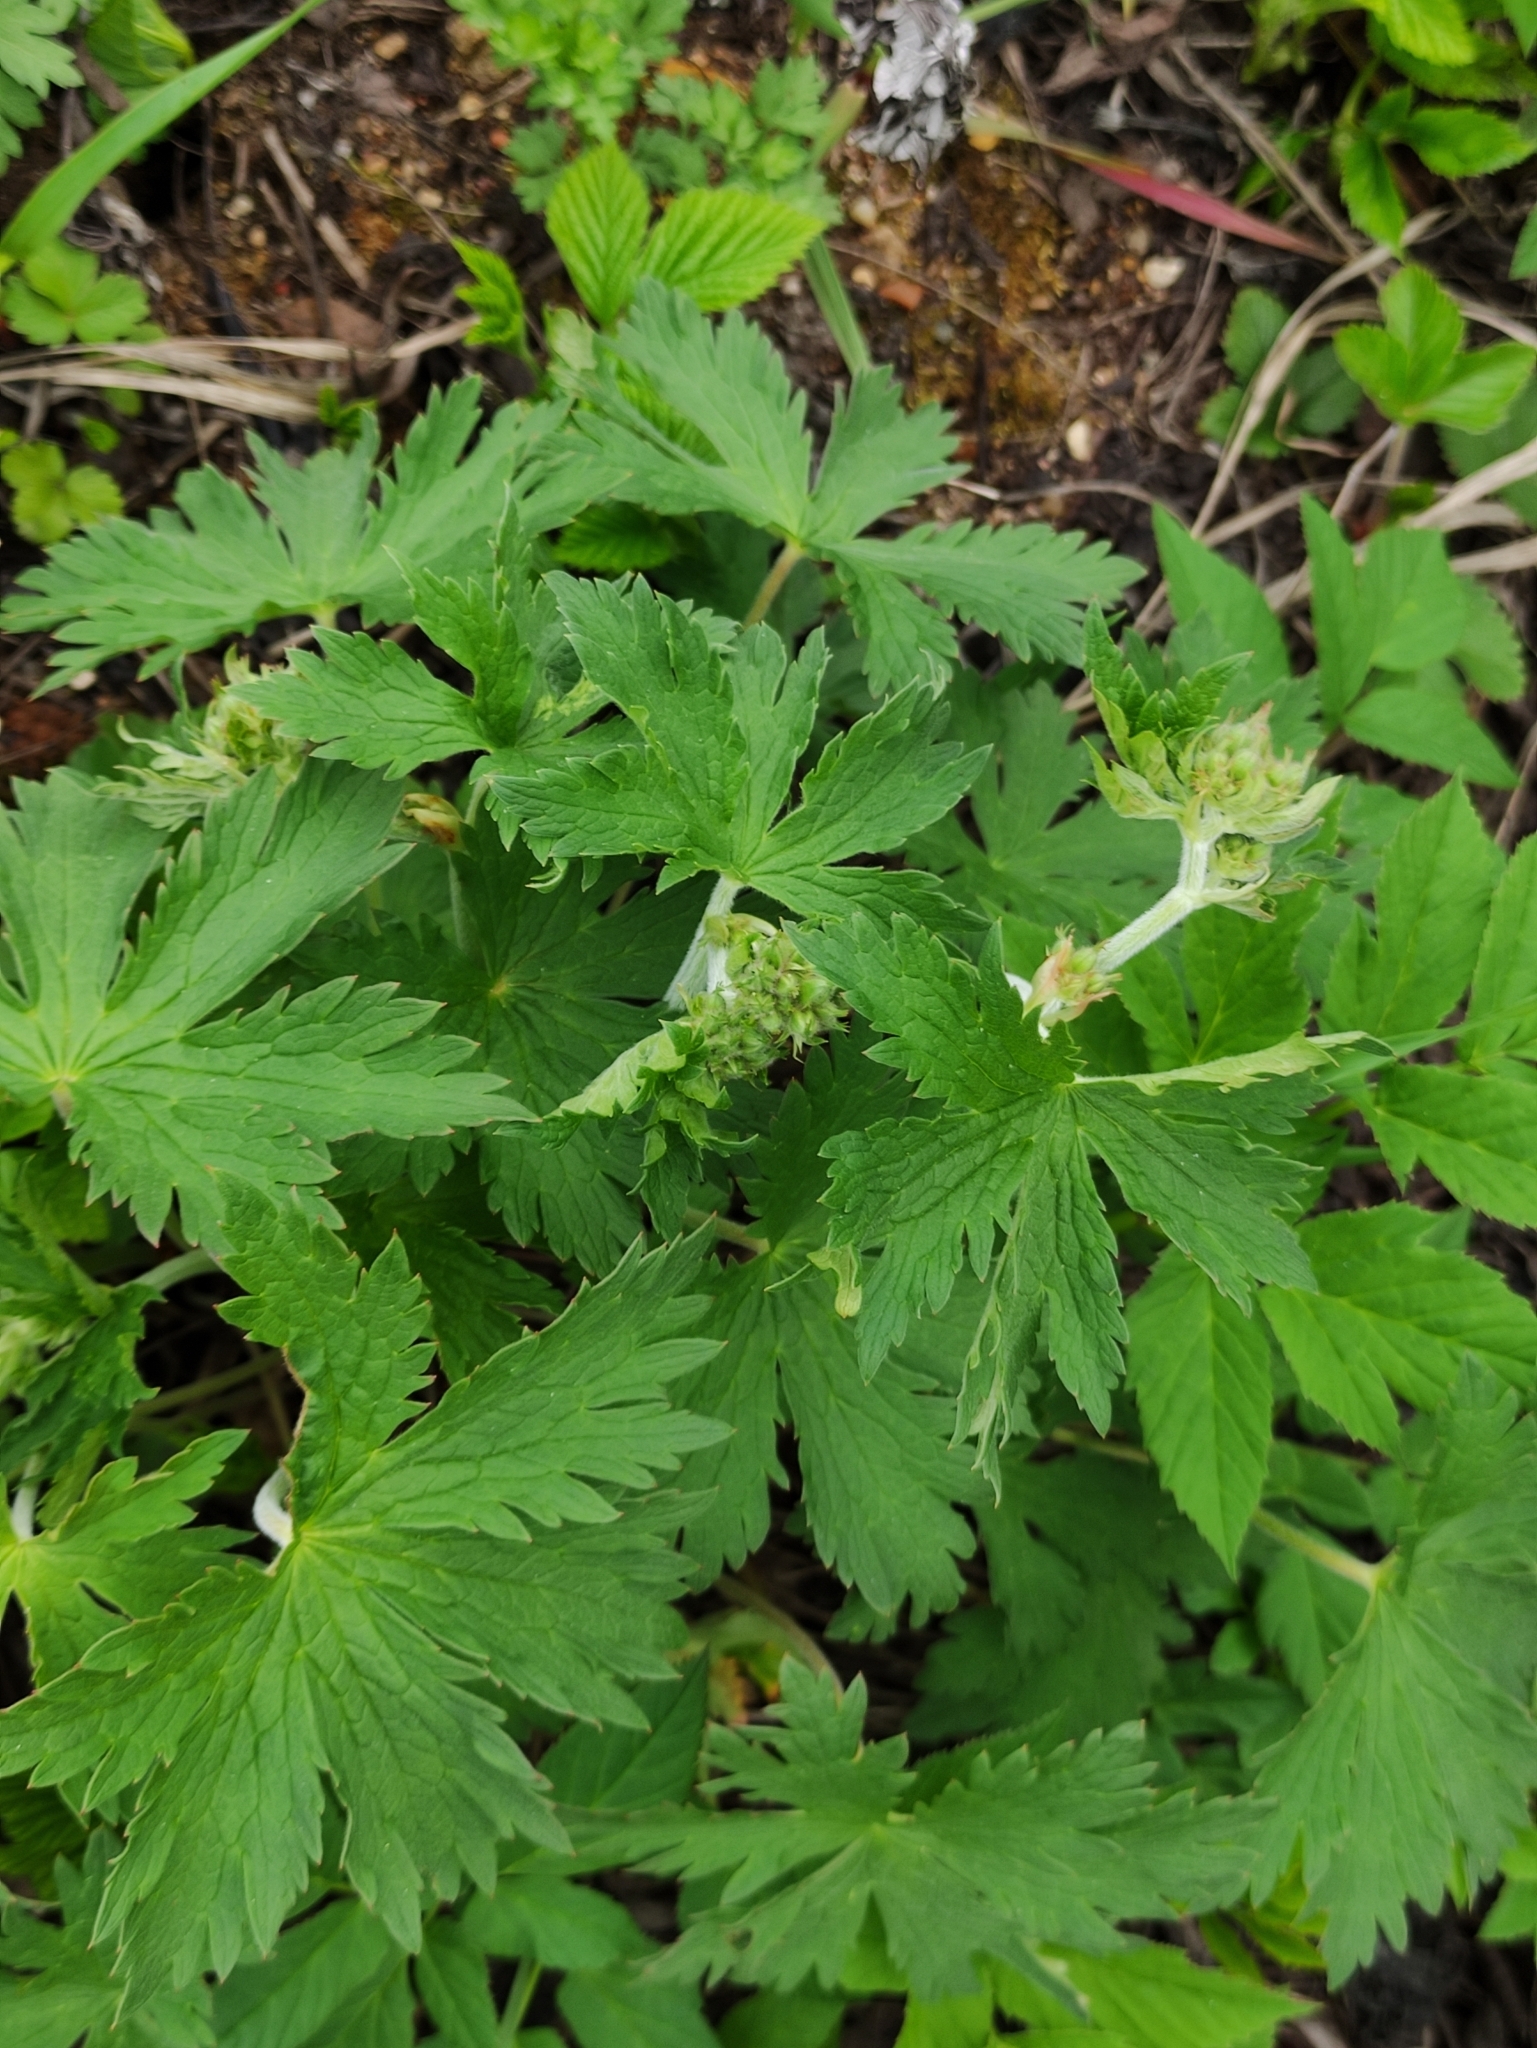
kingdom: Plantae
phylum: Tracheophyta
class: Magnoliopsida
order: Geraniales
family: Geraniaceae
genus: Geranium
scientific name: Geranium sylvaticum
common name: Wood crane's-bill
